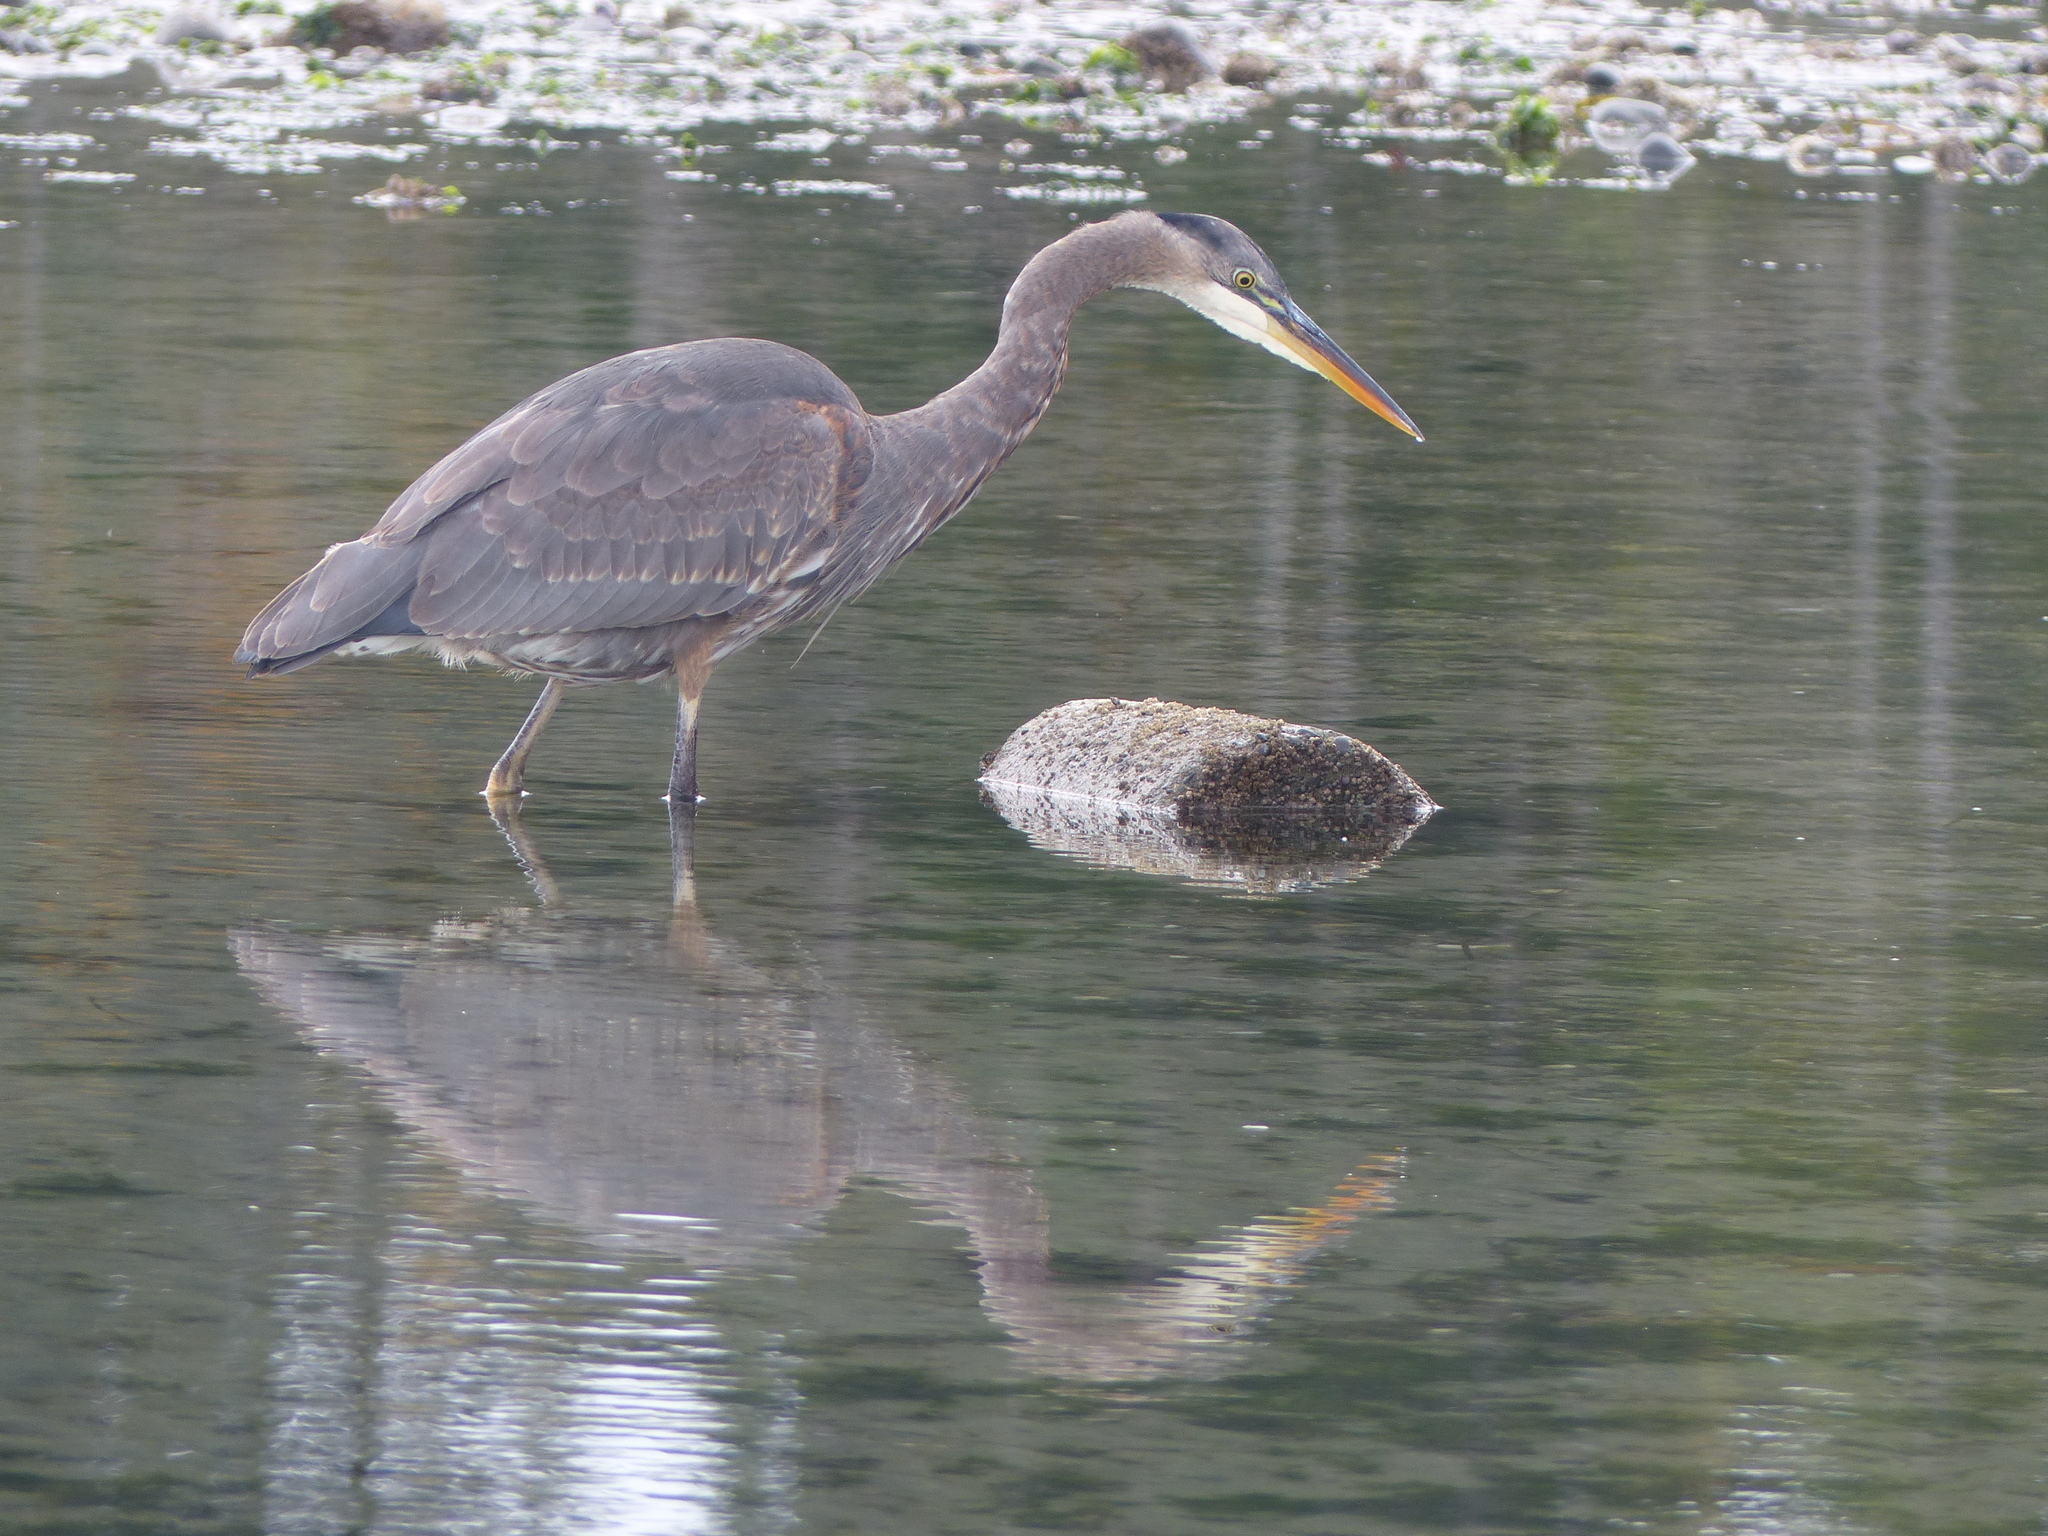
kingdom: Animalia
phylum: Chordata
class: Aves
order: Pelecaniformes
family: Ardeidae
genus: Ardea
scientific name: Ardea herodias
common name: Great blue heron
